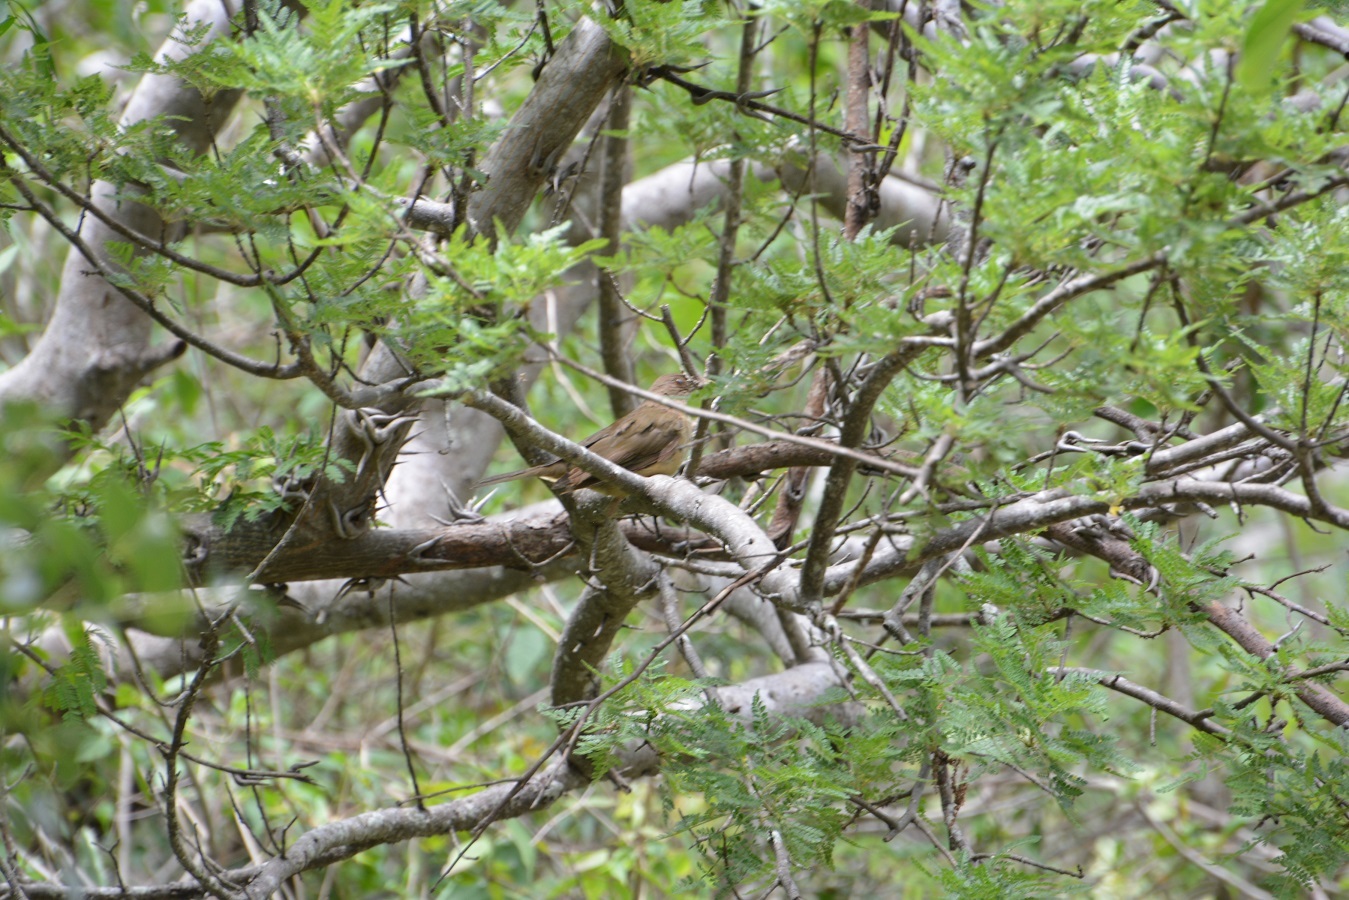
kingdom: Animalia
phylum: Chordata
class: Aves
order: Passeriformes
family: Turdidae
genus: Turdus
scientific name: Turdus grayi
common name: Clay-colored thrush
